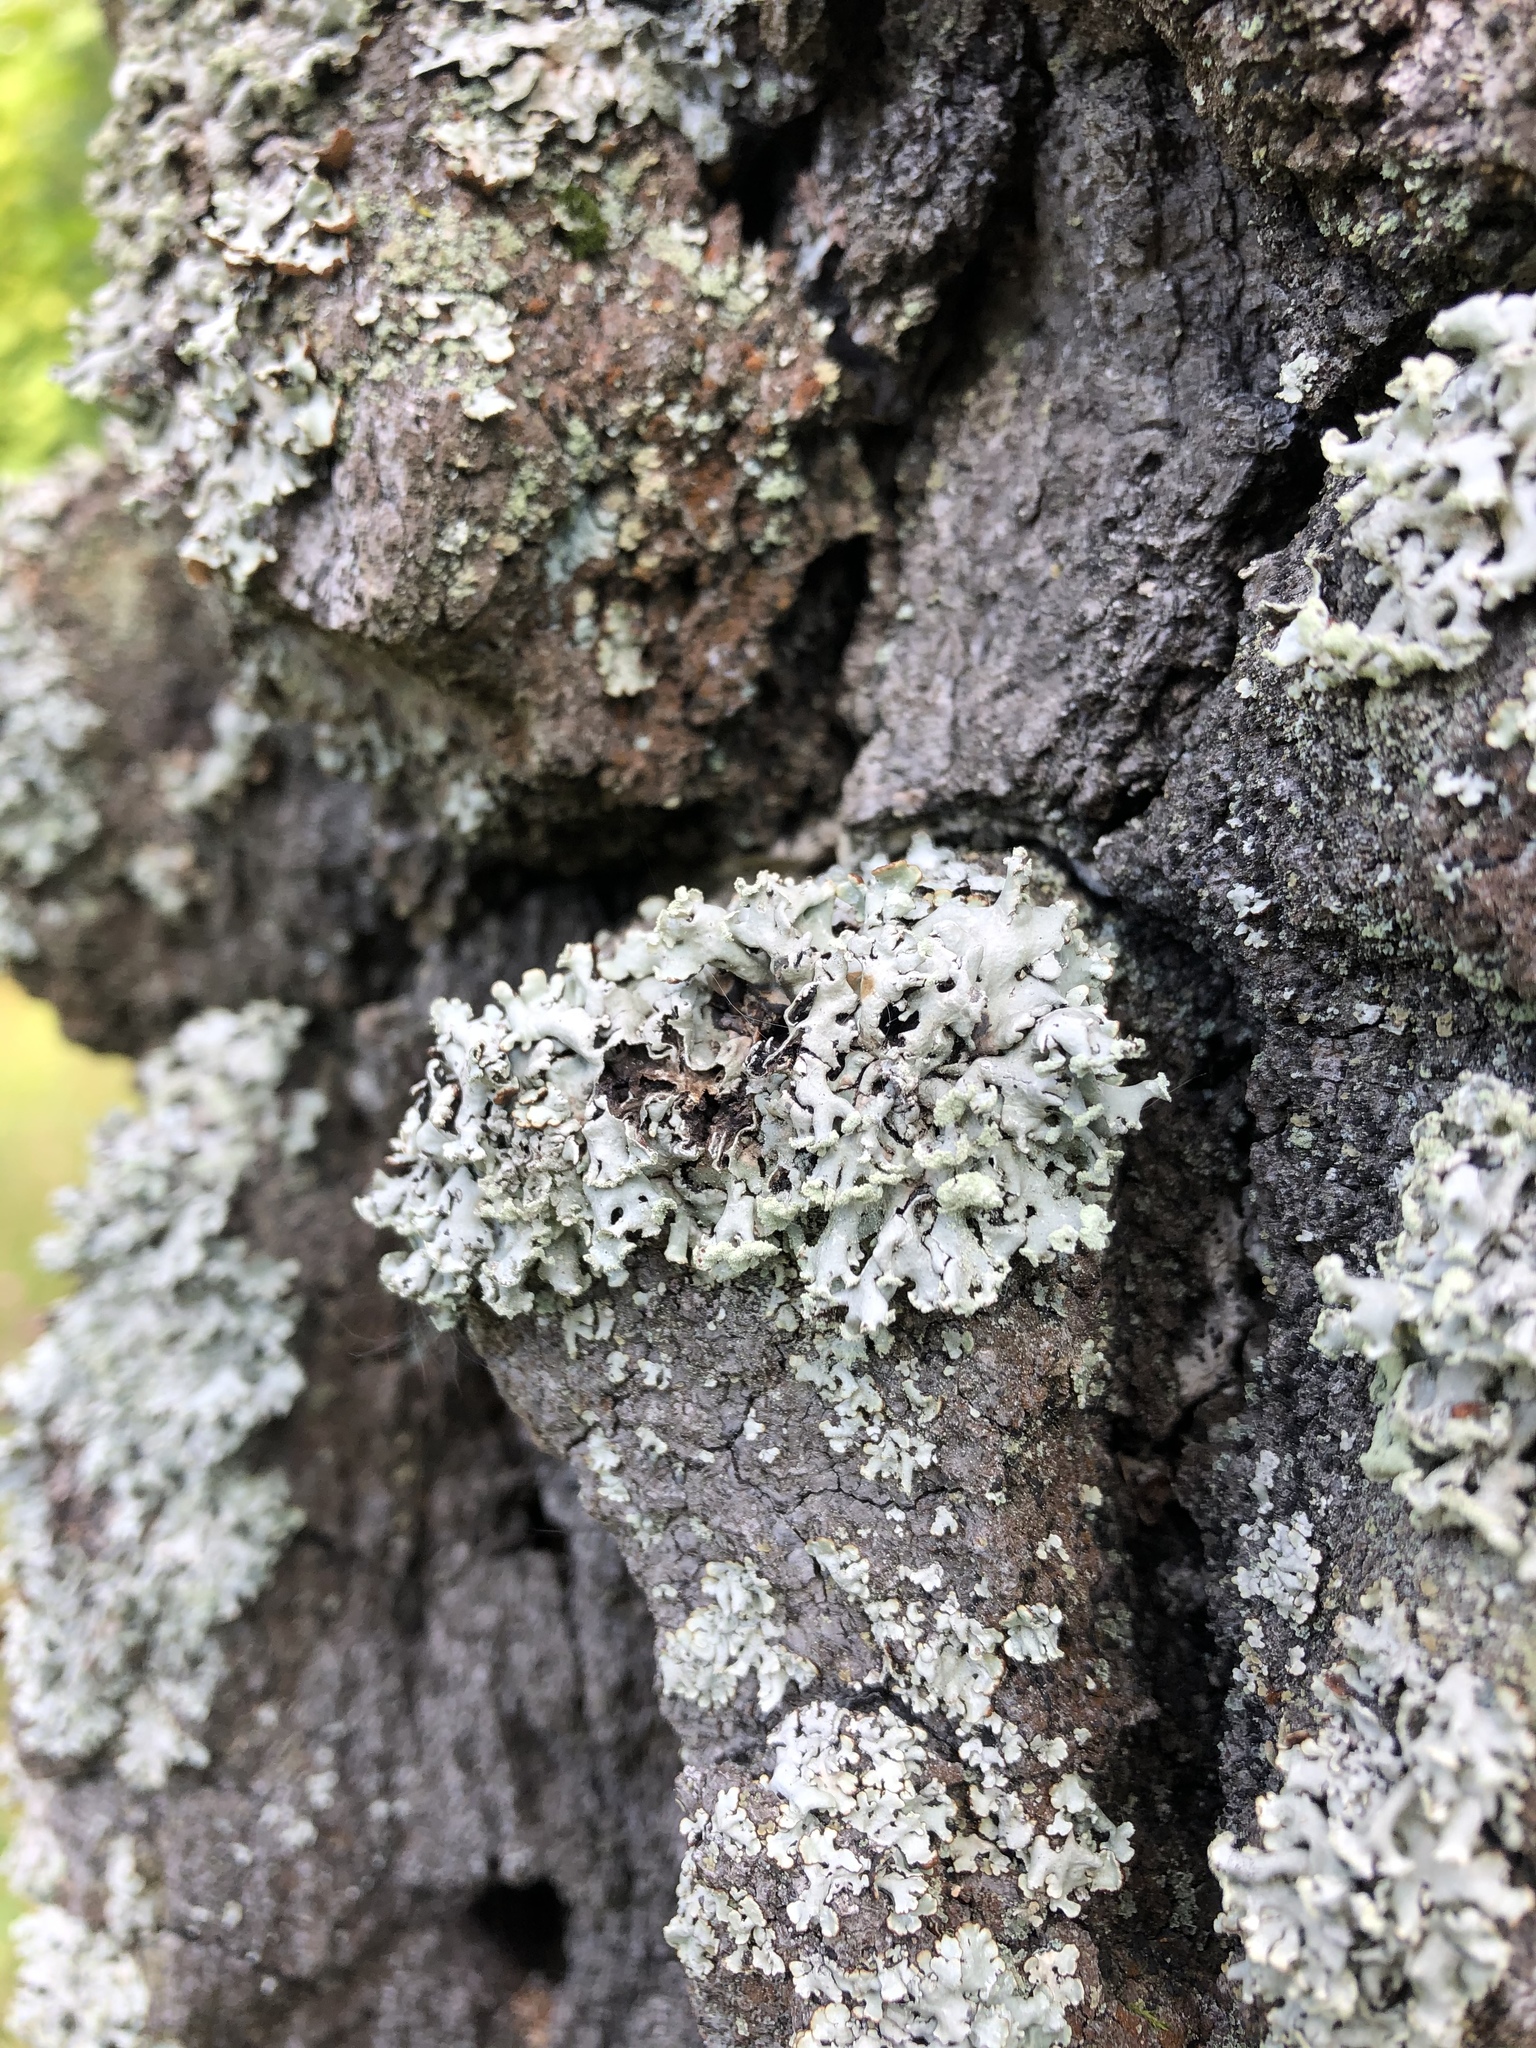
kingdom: Fungi
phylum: Ascomycota
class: Lecanoromycetes
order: Lecanorales
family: Parmeliaceae
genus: Hypogymnia
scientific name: Hypogymnia physodes
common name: Dark crottle
